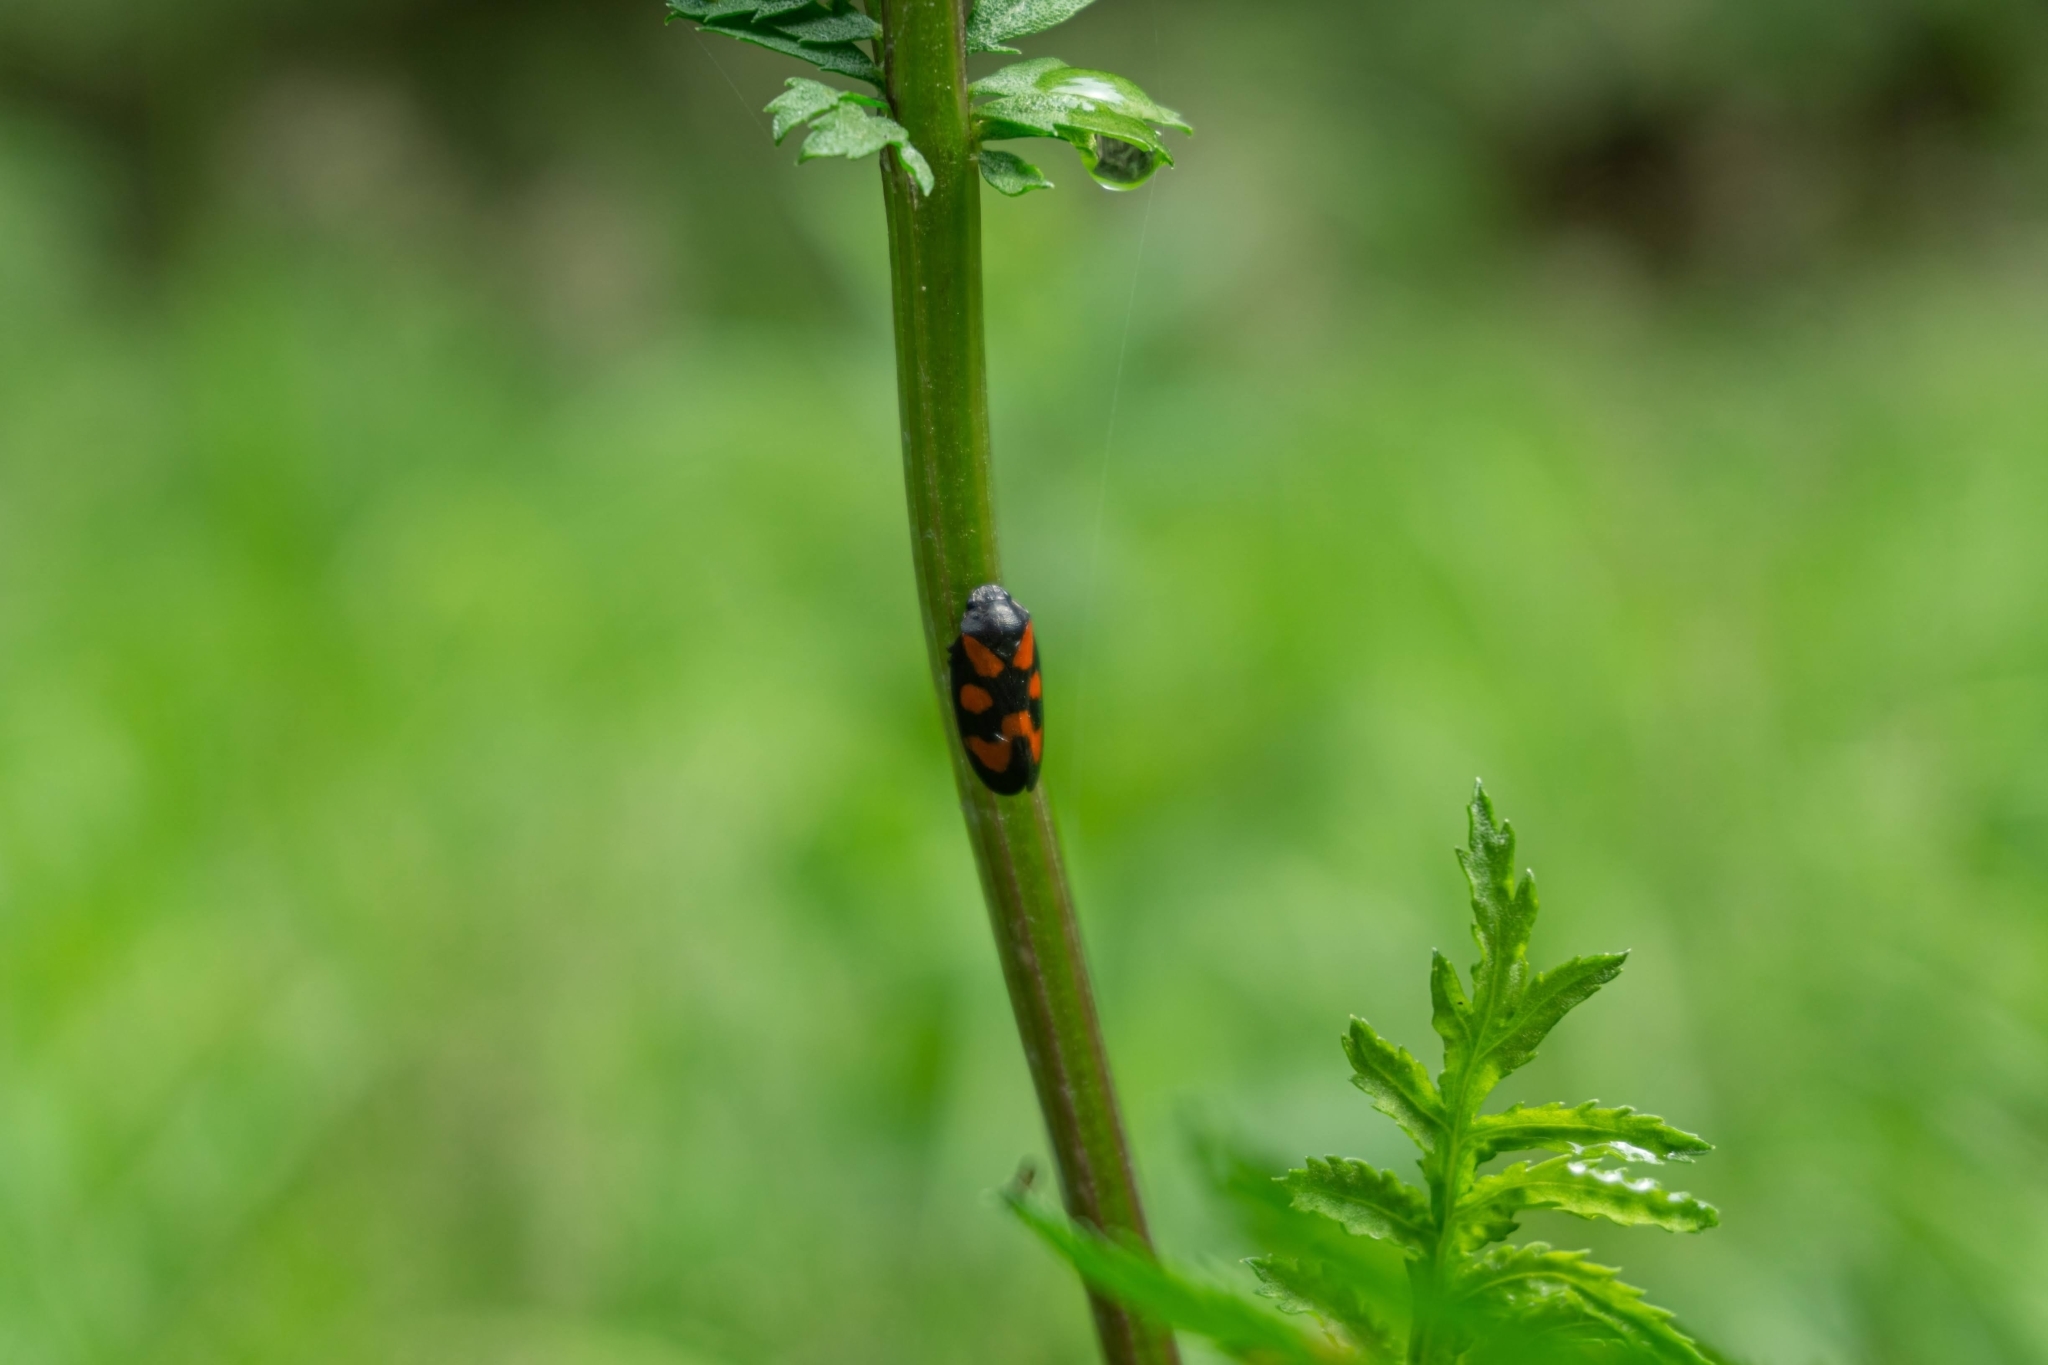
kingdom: Animalia
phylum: Arthropoda
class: Insecta
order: Hemiptera
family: Cercopidae
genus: Cercopis
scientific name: Cercopis vulnerata
